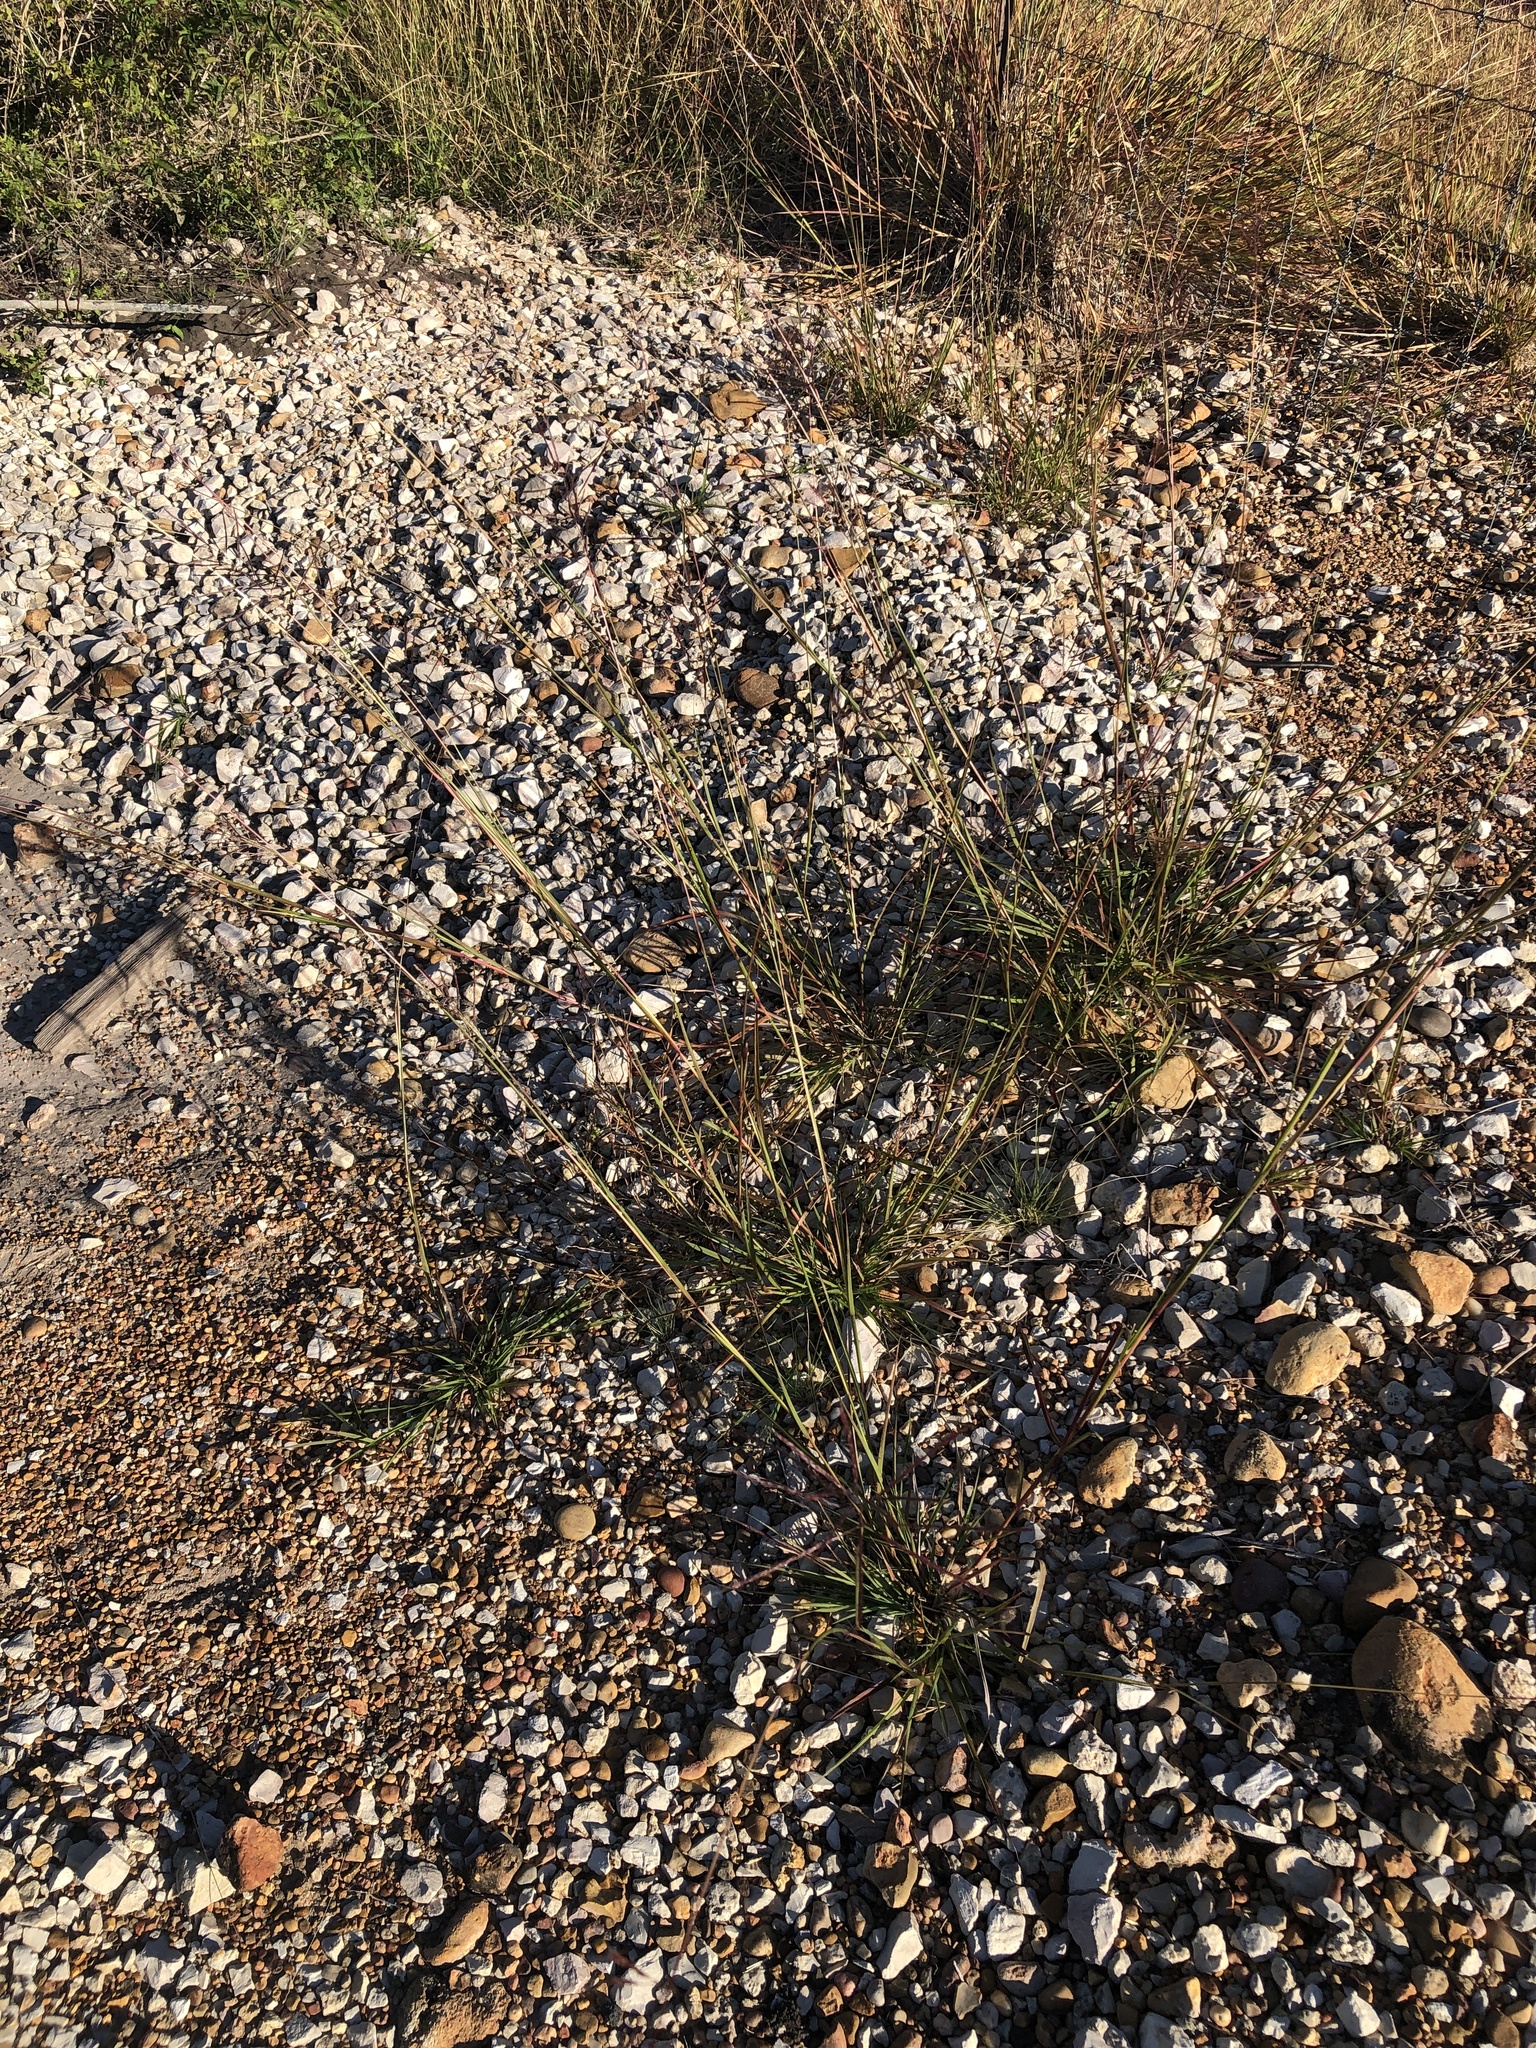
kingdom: Plantae
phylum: Tracheophyta
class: Liliopsida
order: Poales
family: Poaceae
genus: Bothriochloa
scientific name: Bothriochloa bladhii
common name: Caucasian bluestem
